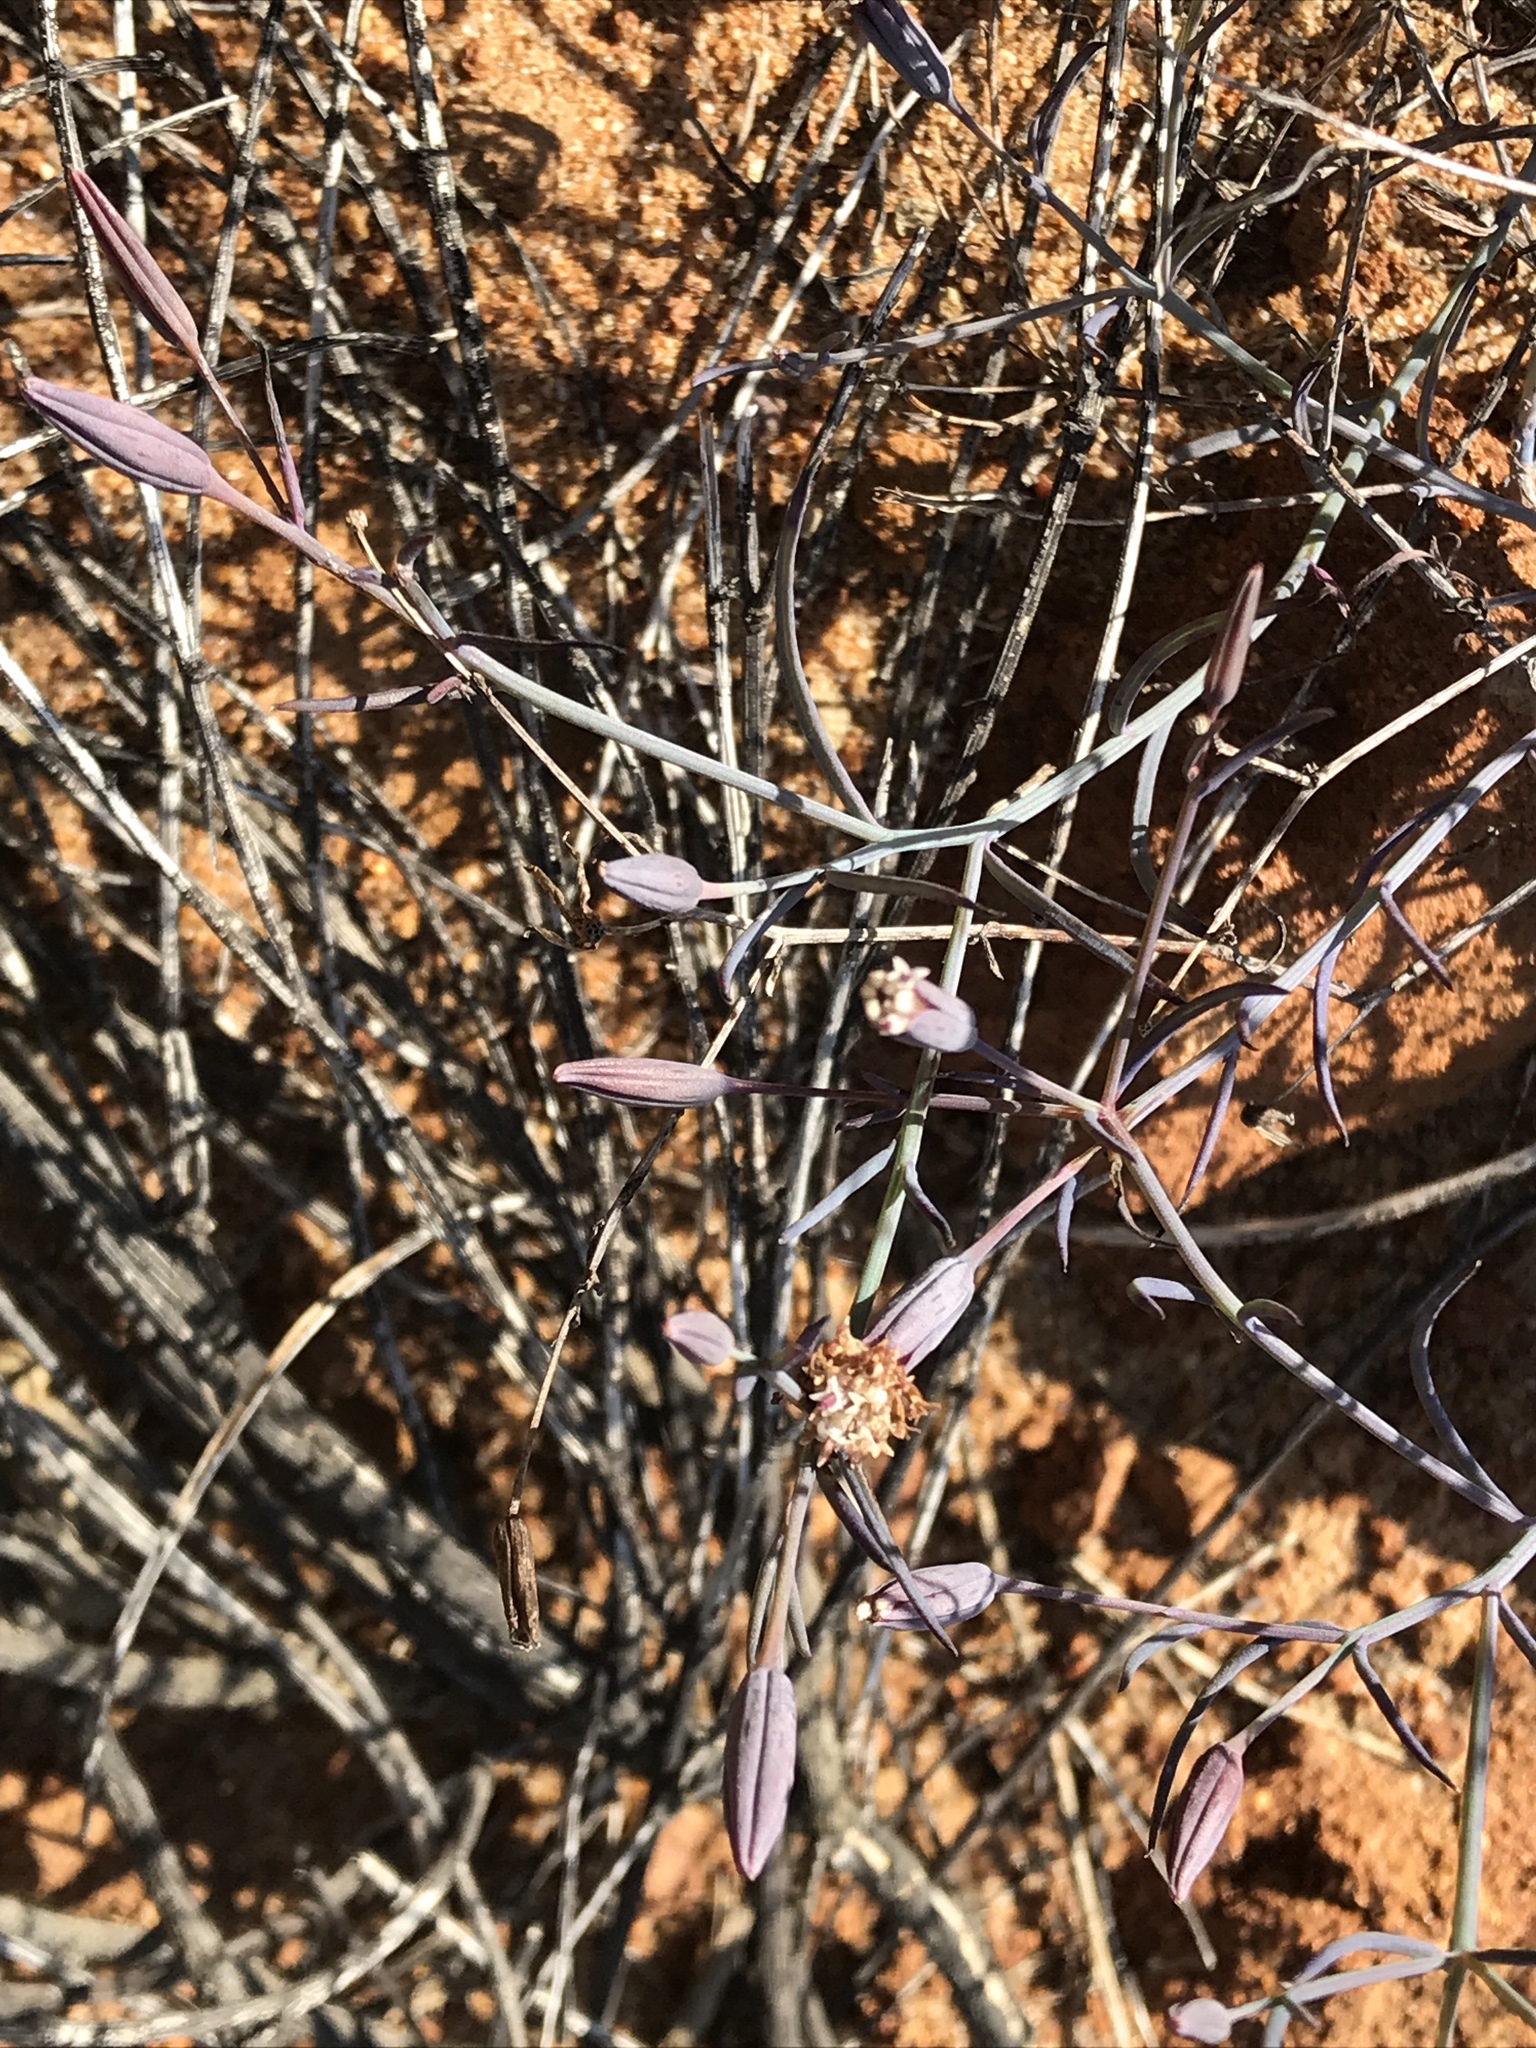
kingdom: Plantae
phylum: Tracheophyta
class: Magnoliopsida
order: Asterales
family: Asteraceae
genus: Porophyllum
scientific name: Porophyllum gracile
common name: Odora
